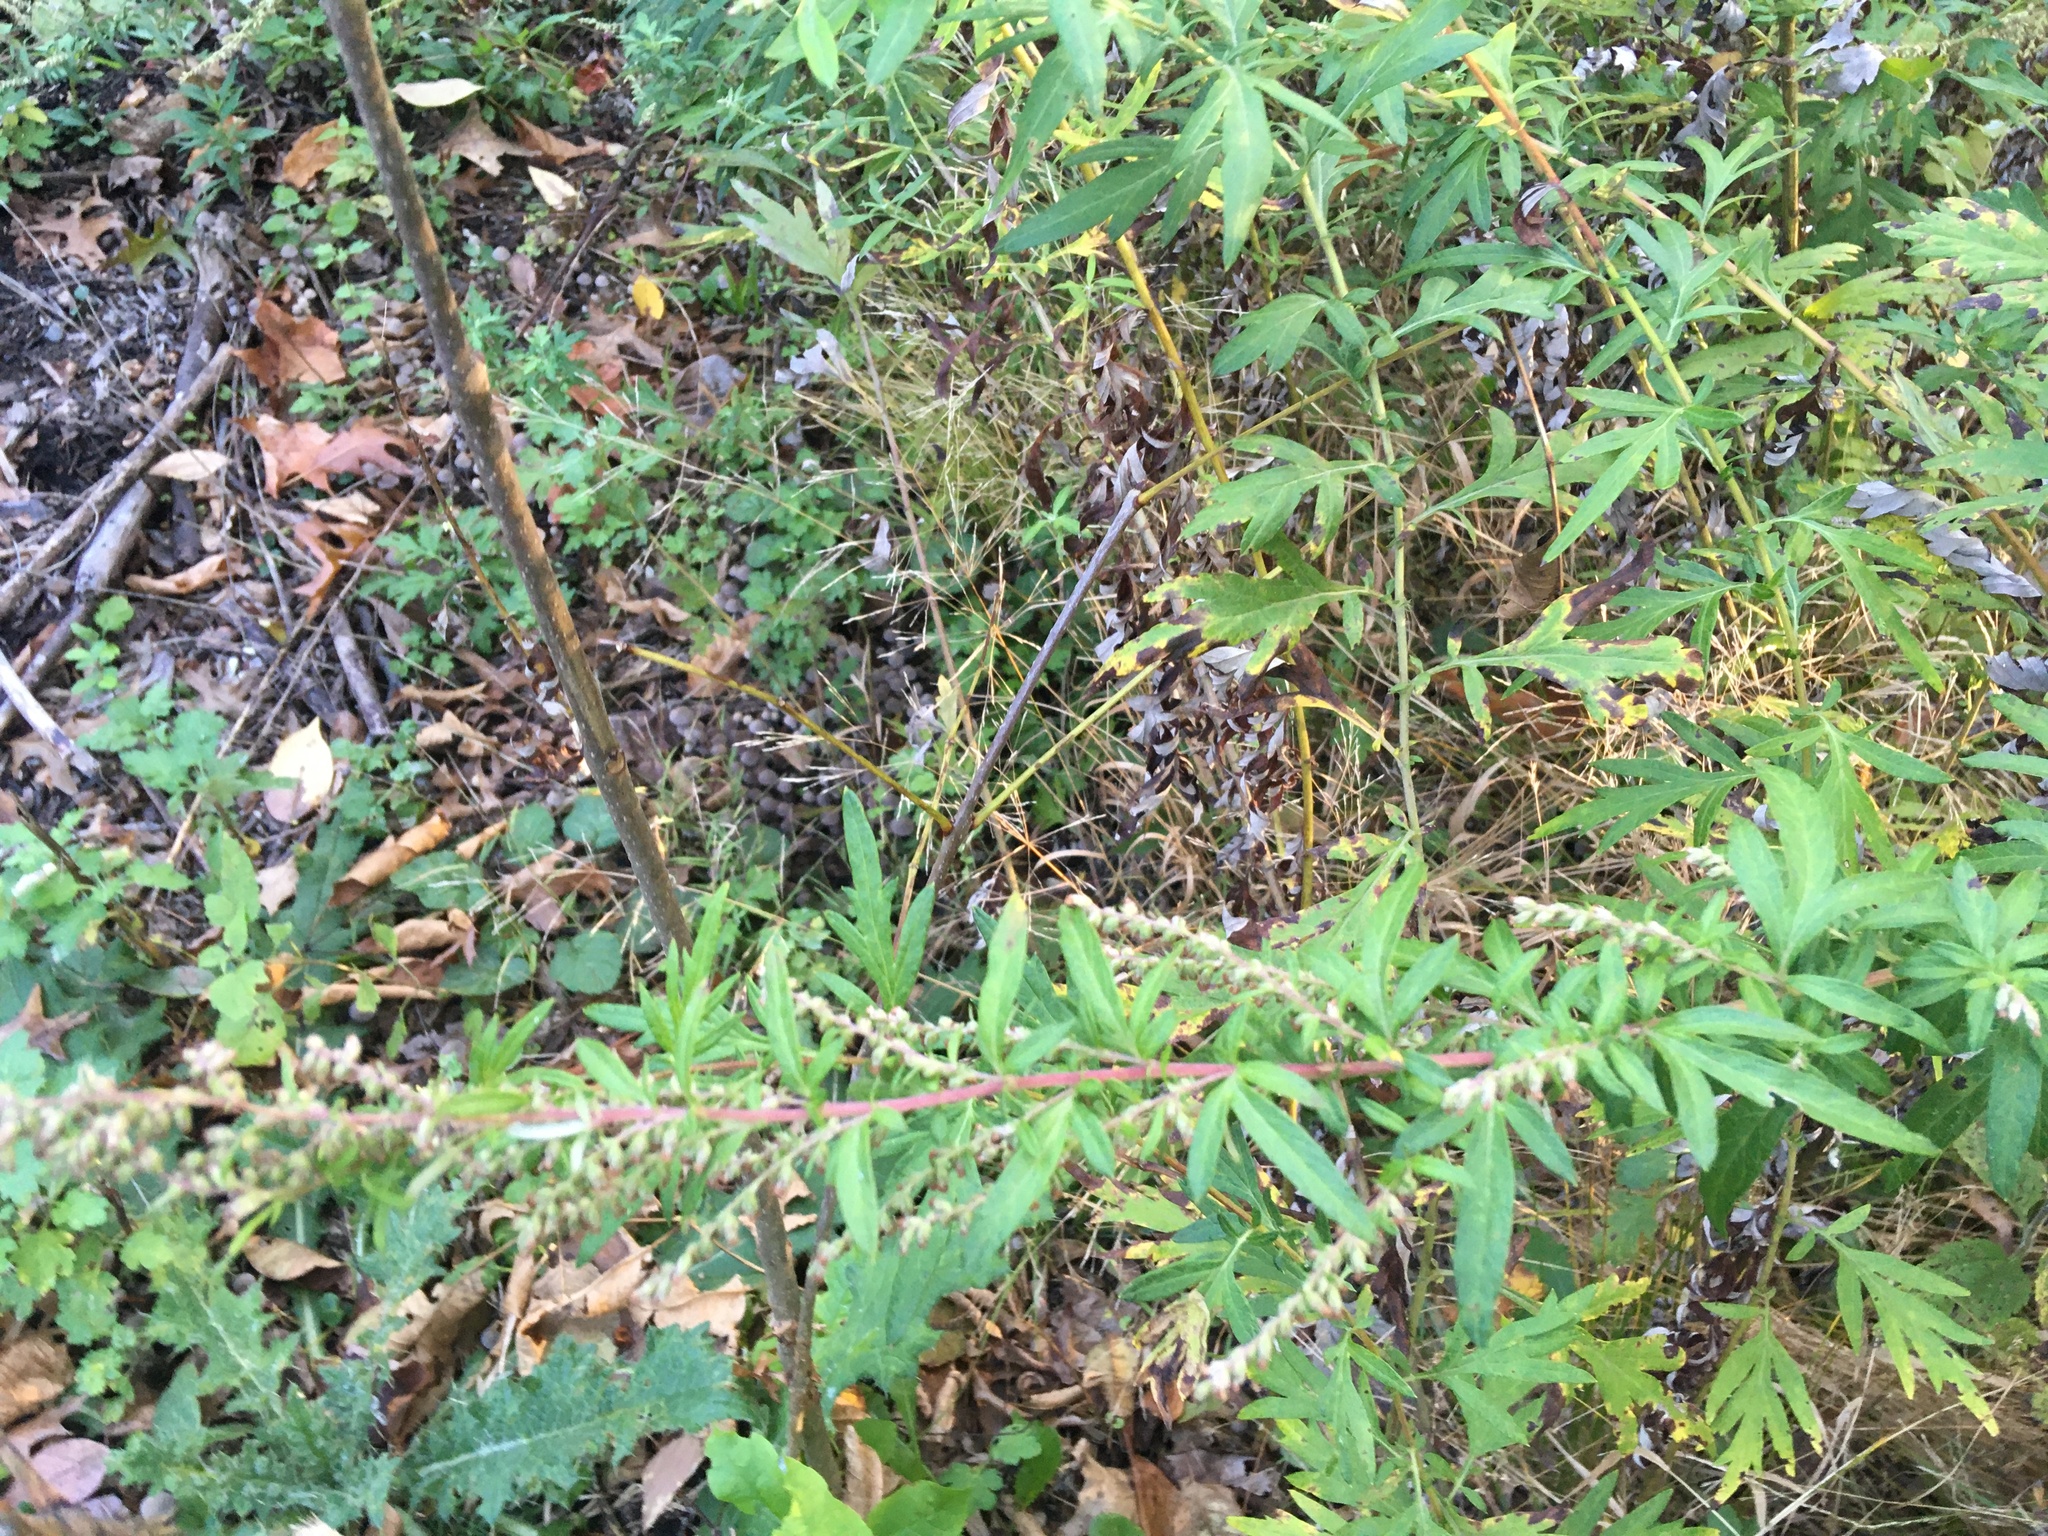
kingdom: Plantae
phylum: Tracheophyta
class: Magnoliopsida
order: Asterales
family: Asteraceae
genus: Artemisia
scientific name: Artemisia vulgaris
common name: Mugwort
